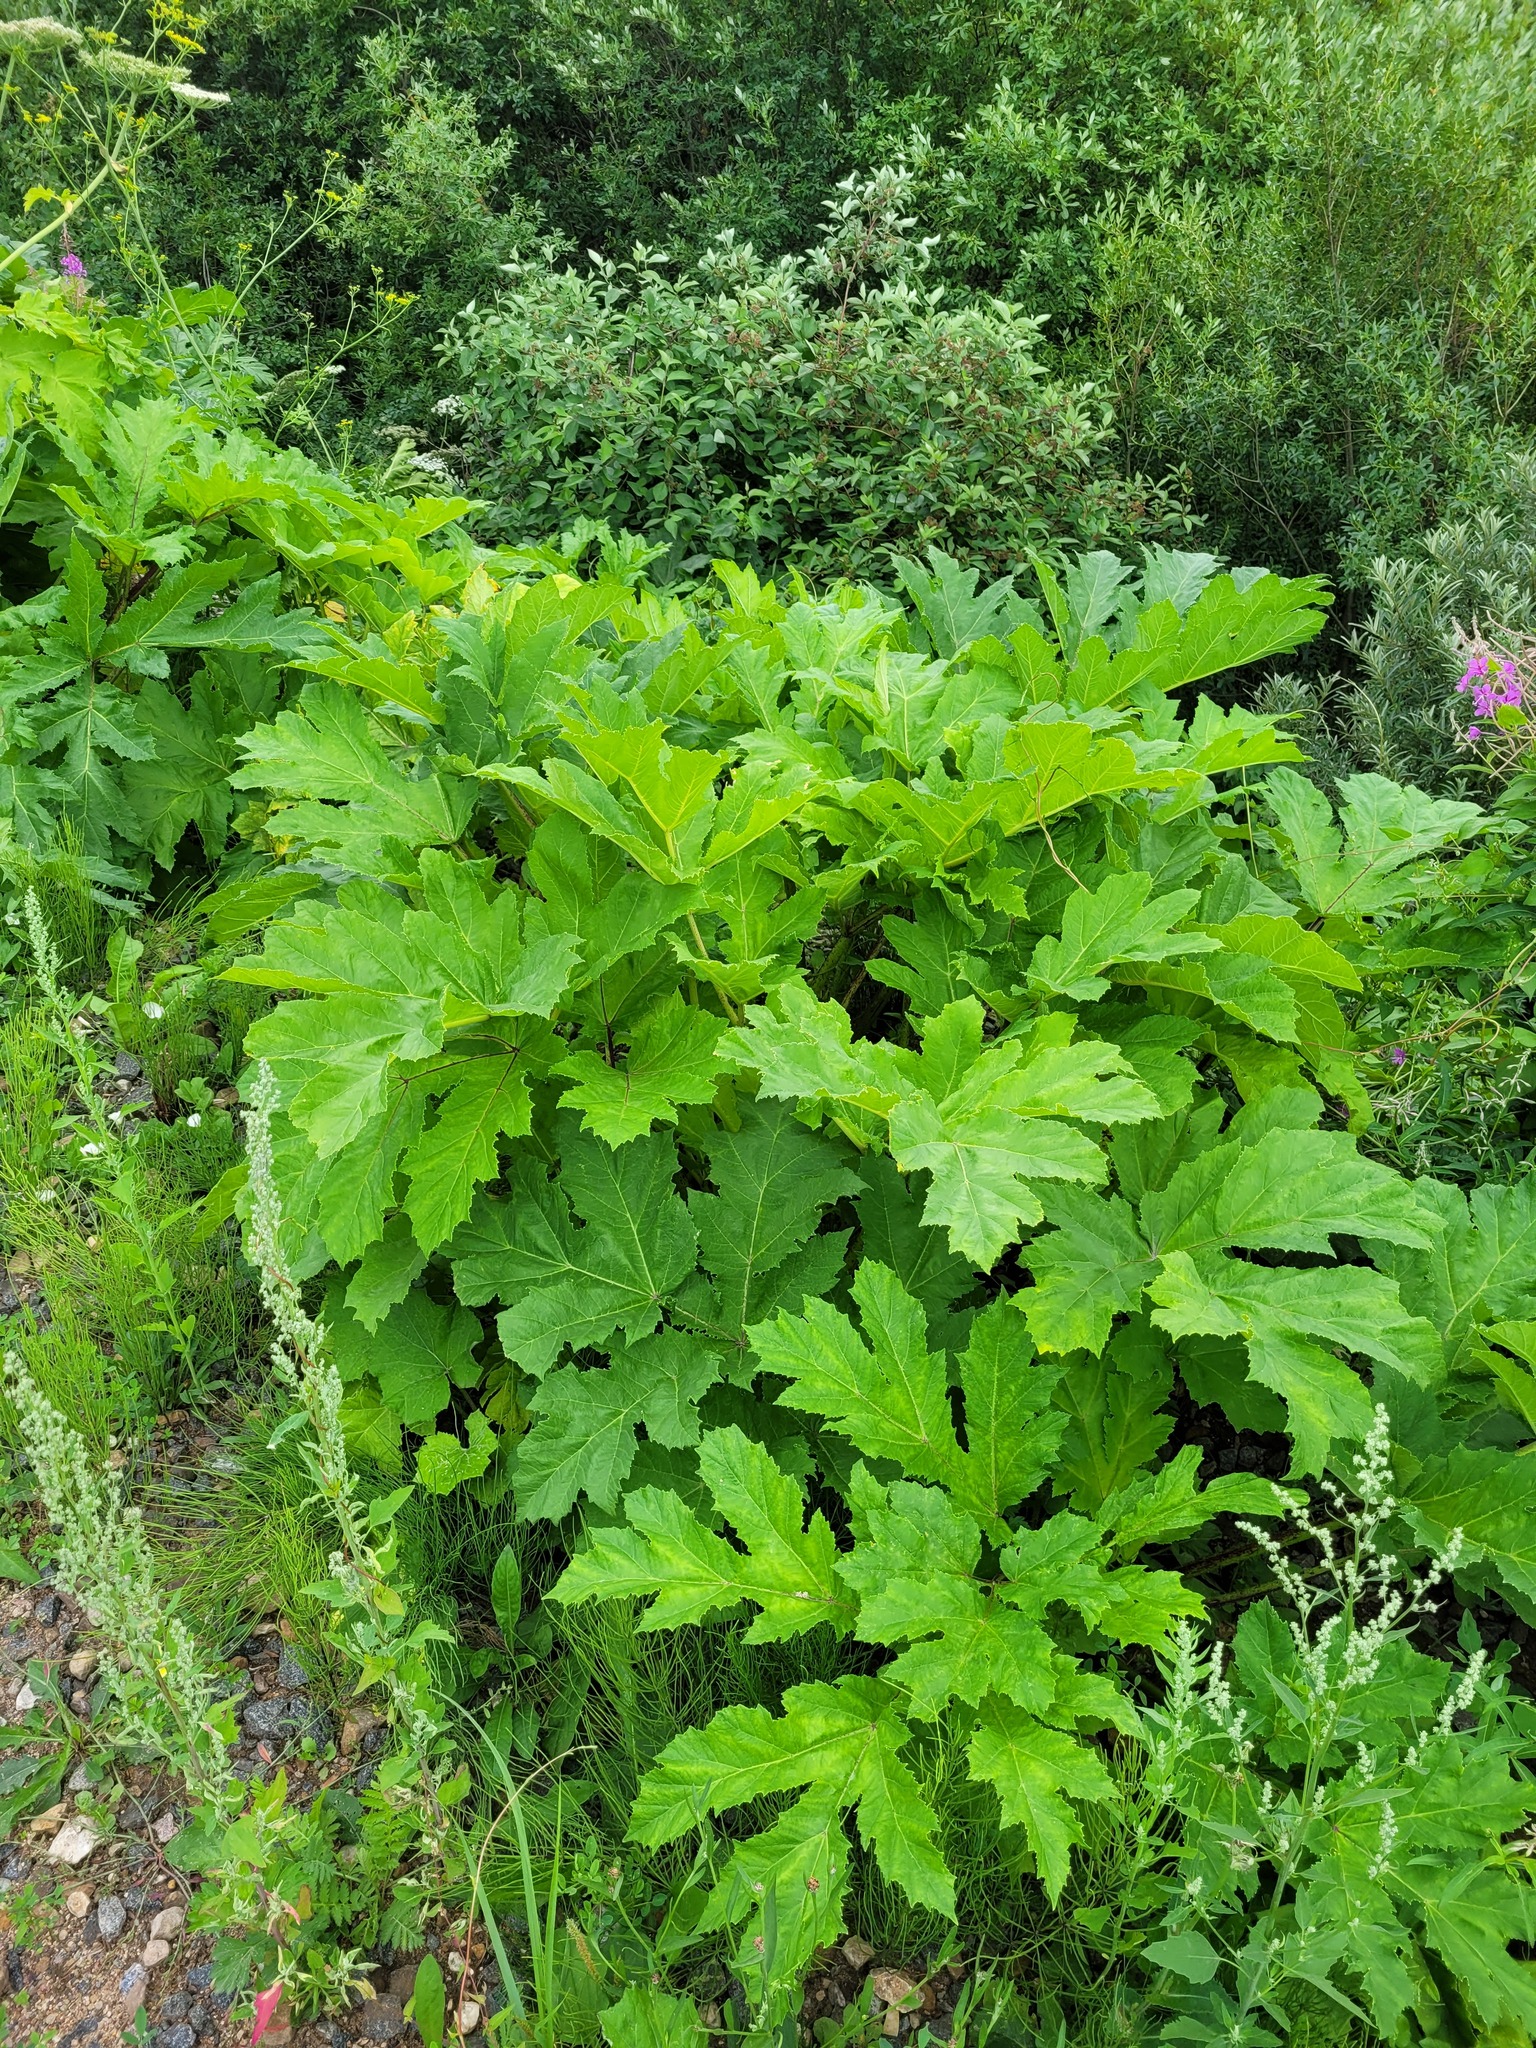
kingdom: Plantae
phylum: Tracheophyta
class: Magnoliopsida
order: Apiales
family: Apiaceae
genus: Heracleum
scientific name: Heracleum sosnowskyi
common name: Sosnowsky's hogweed
